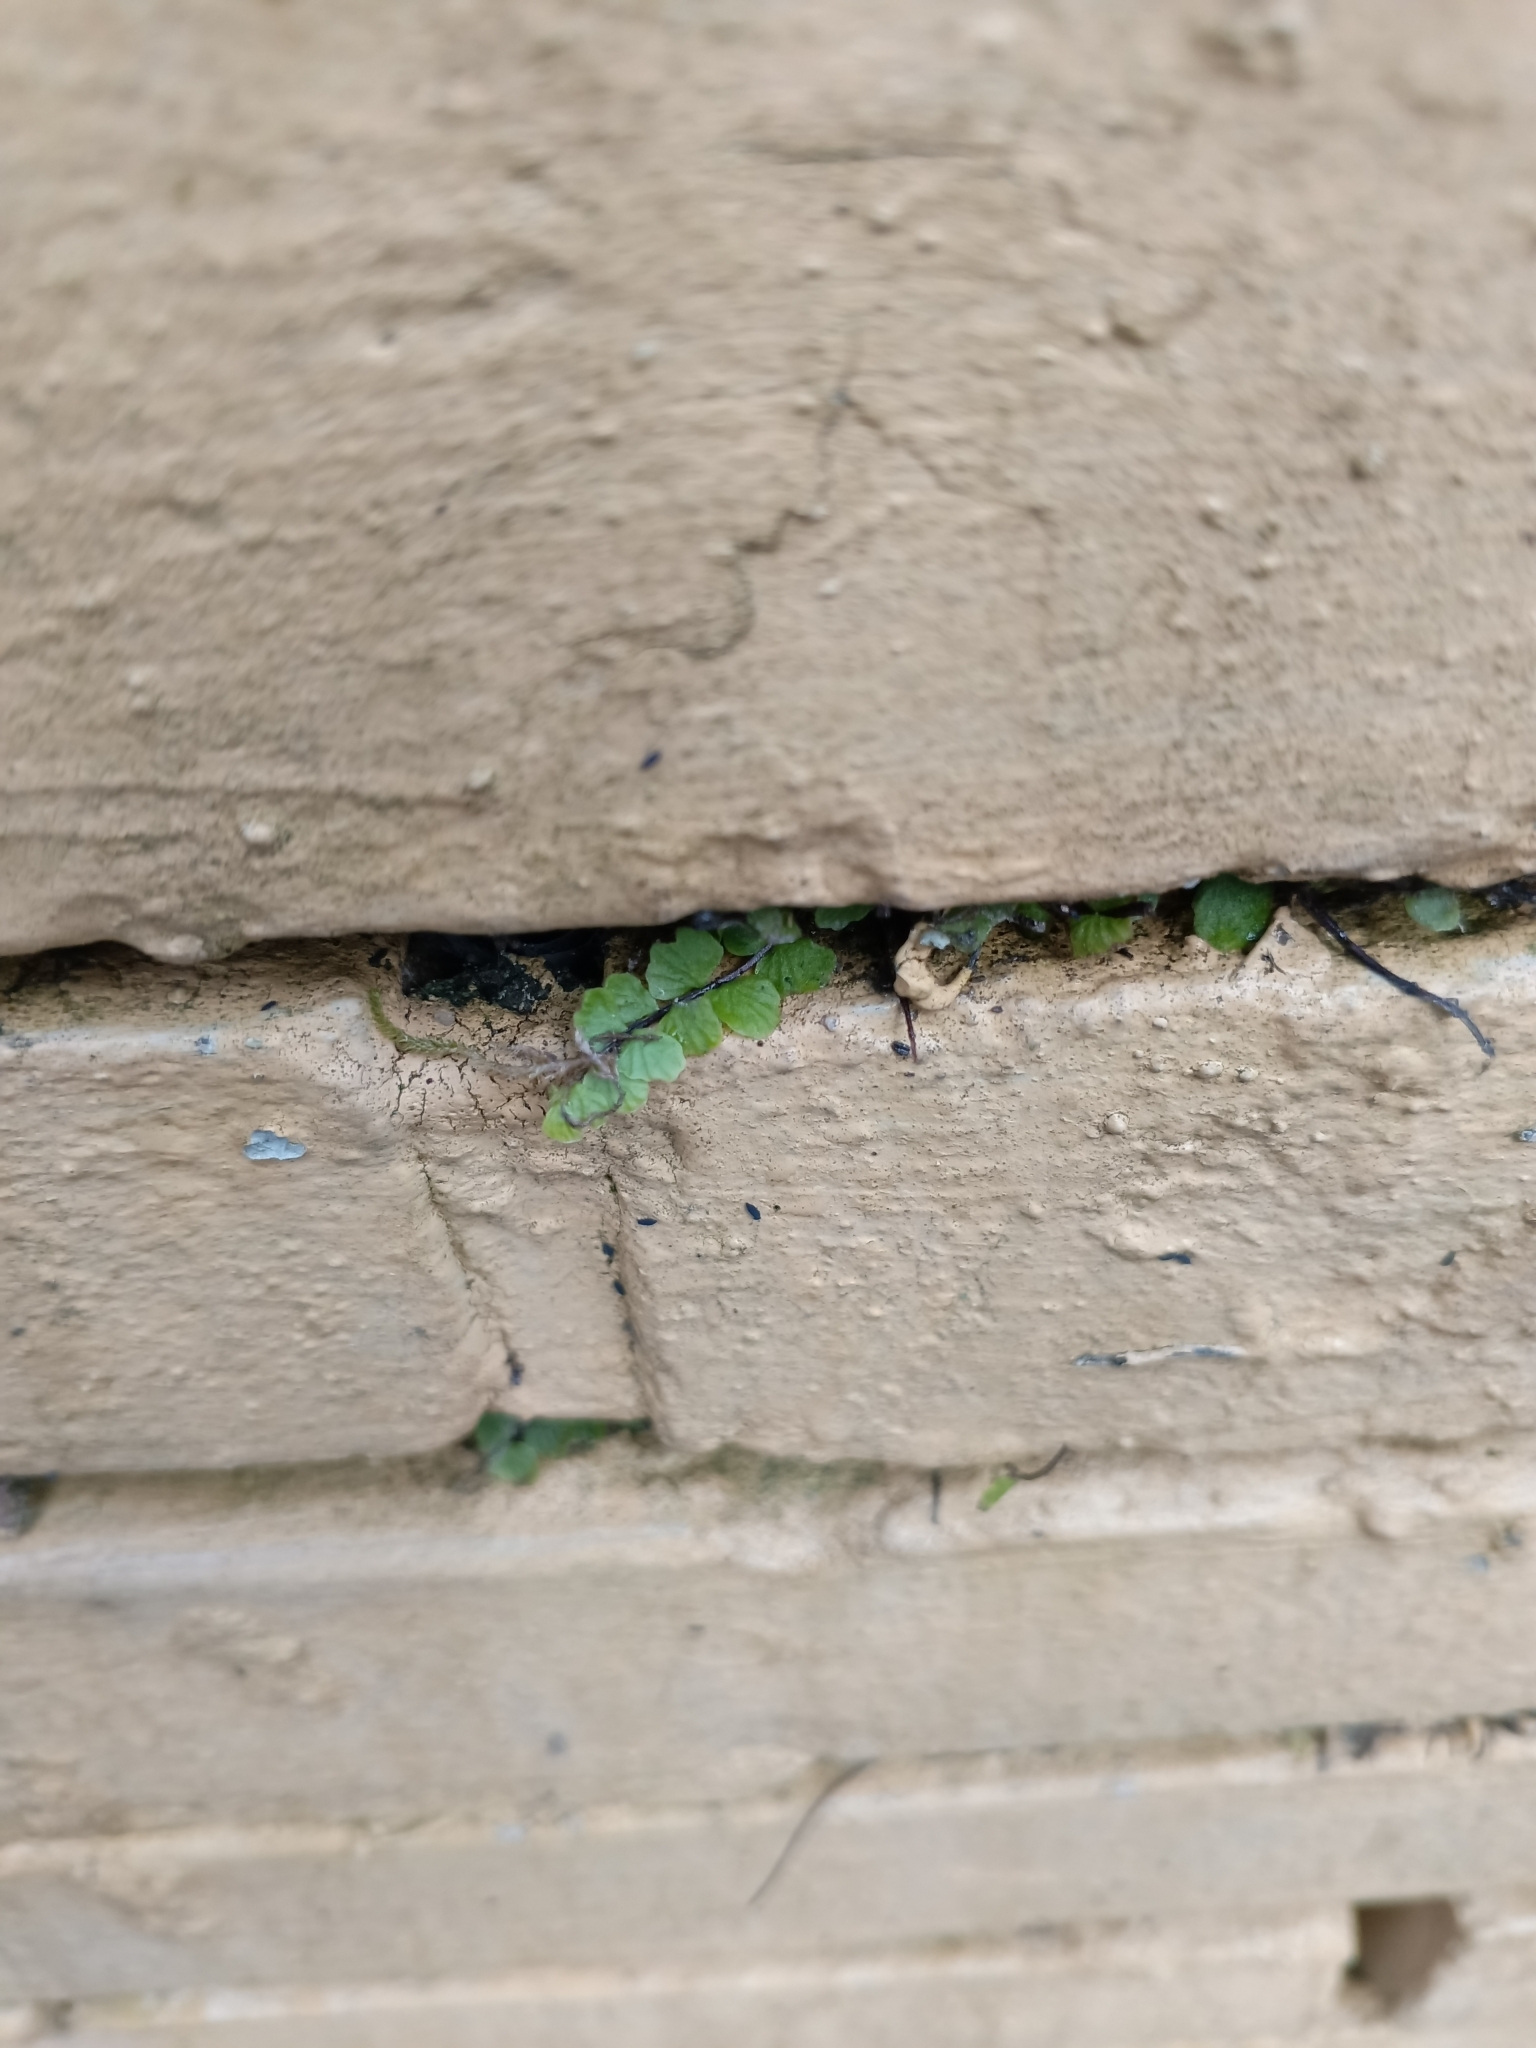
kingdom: Plantae
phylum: Tracheophyta
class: Polypodiopsida
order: Polypodiales
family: Aspleniaceae
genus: Asplenium
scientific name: Asplenium trichomanes
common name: Maidenhair spleenwort
